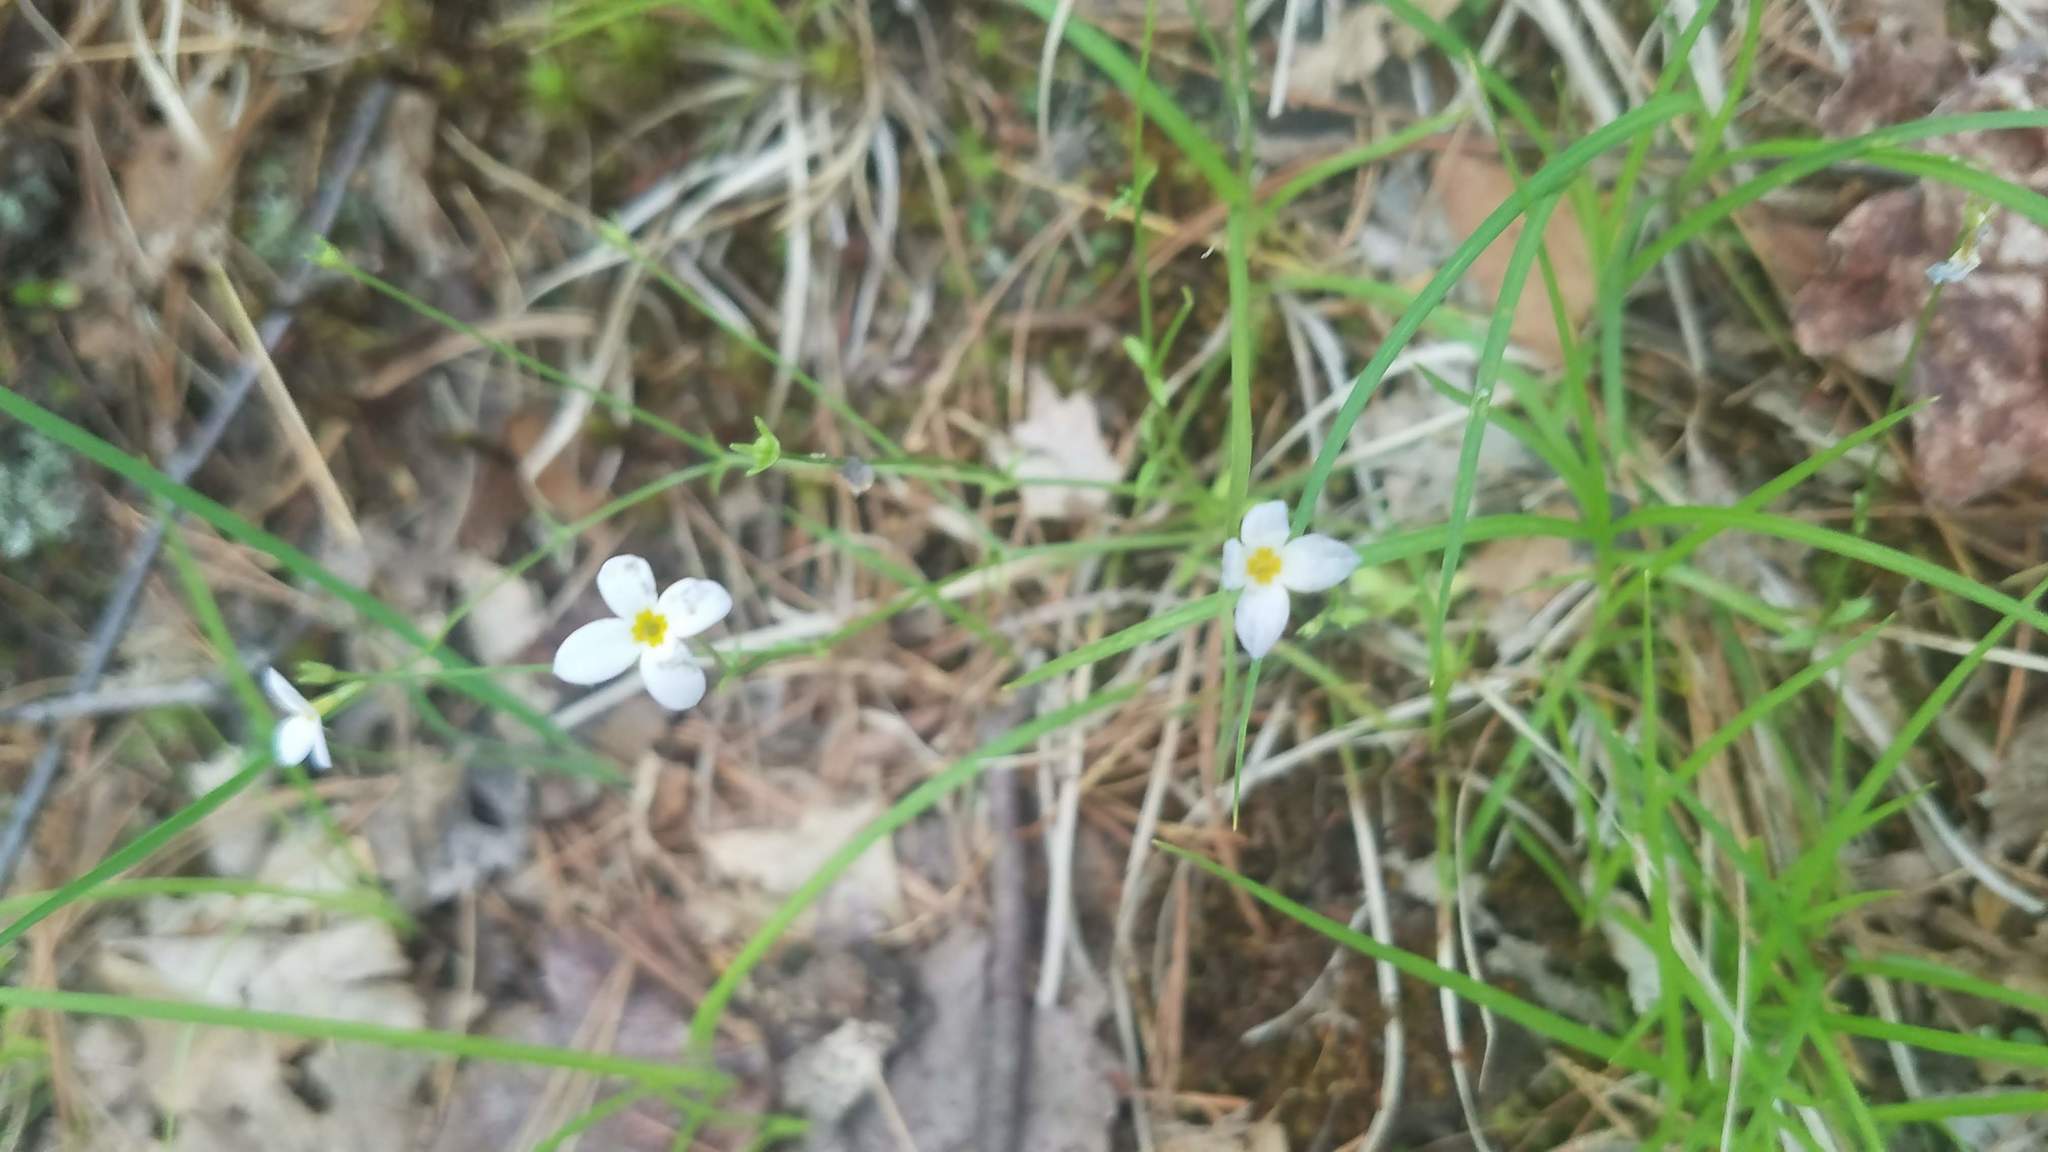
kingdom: Plantae
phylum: Tracheophyta
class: Magnoliopsida
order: Gentianales
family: Rubiaceae
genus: Houstonia
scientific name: Houstonia caerulea
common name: Bluets
